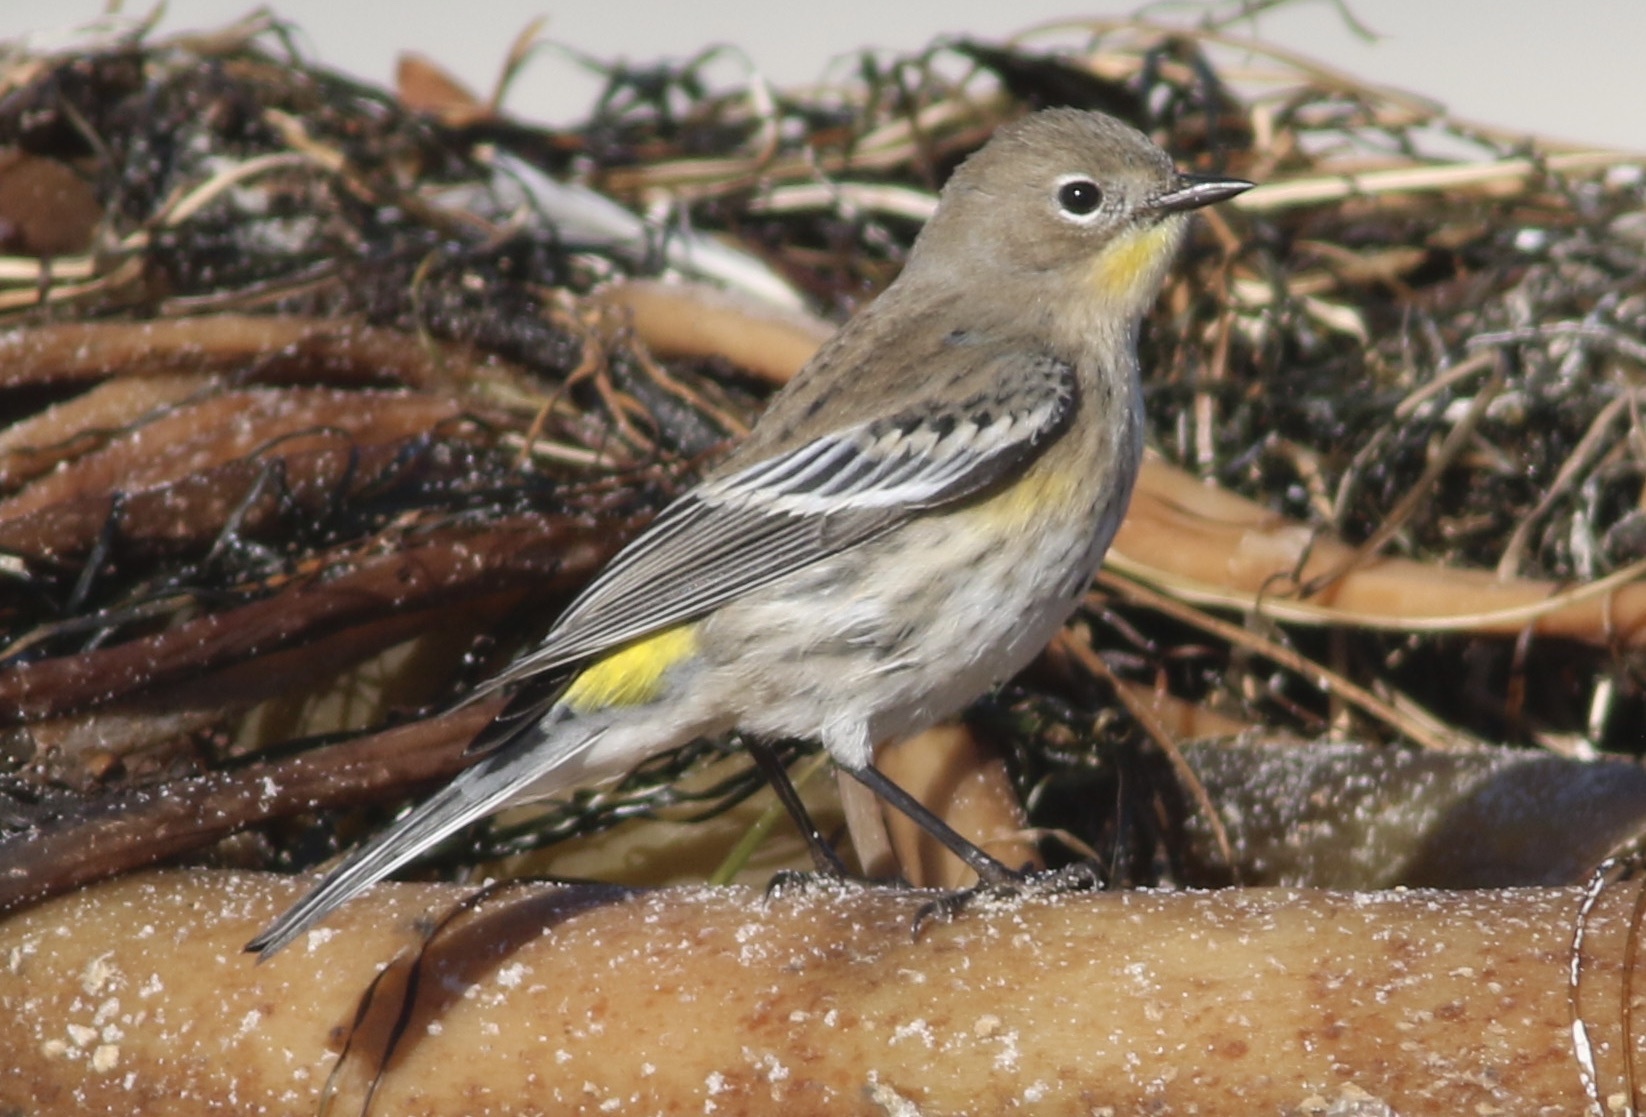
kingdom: Animalia
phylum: Chordata
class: Aves
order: Passeriformes
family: Parulidae
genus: Setophaga
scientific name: Setophaga coronata
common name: Myrtle warbler
